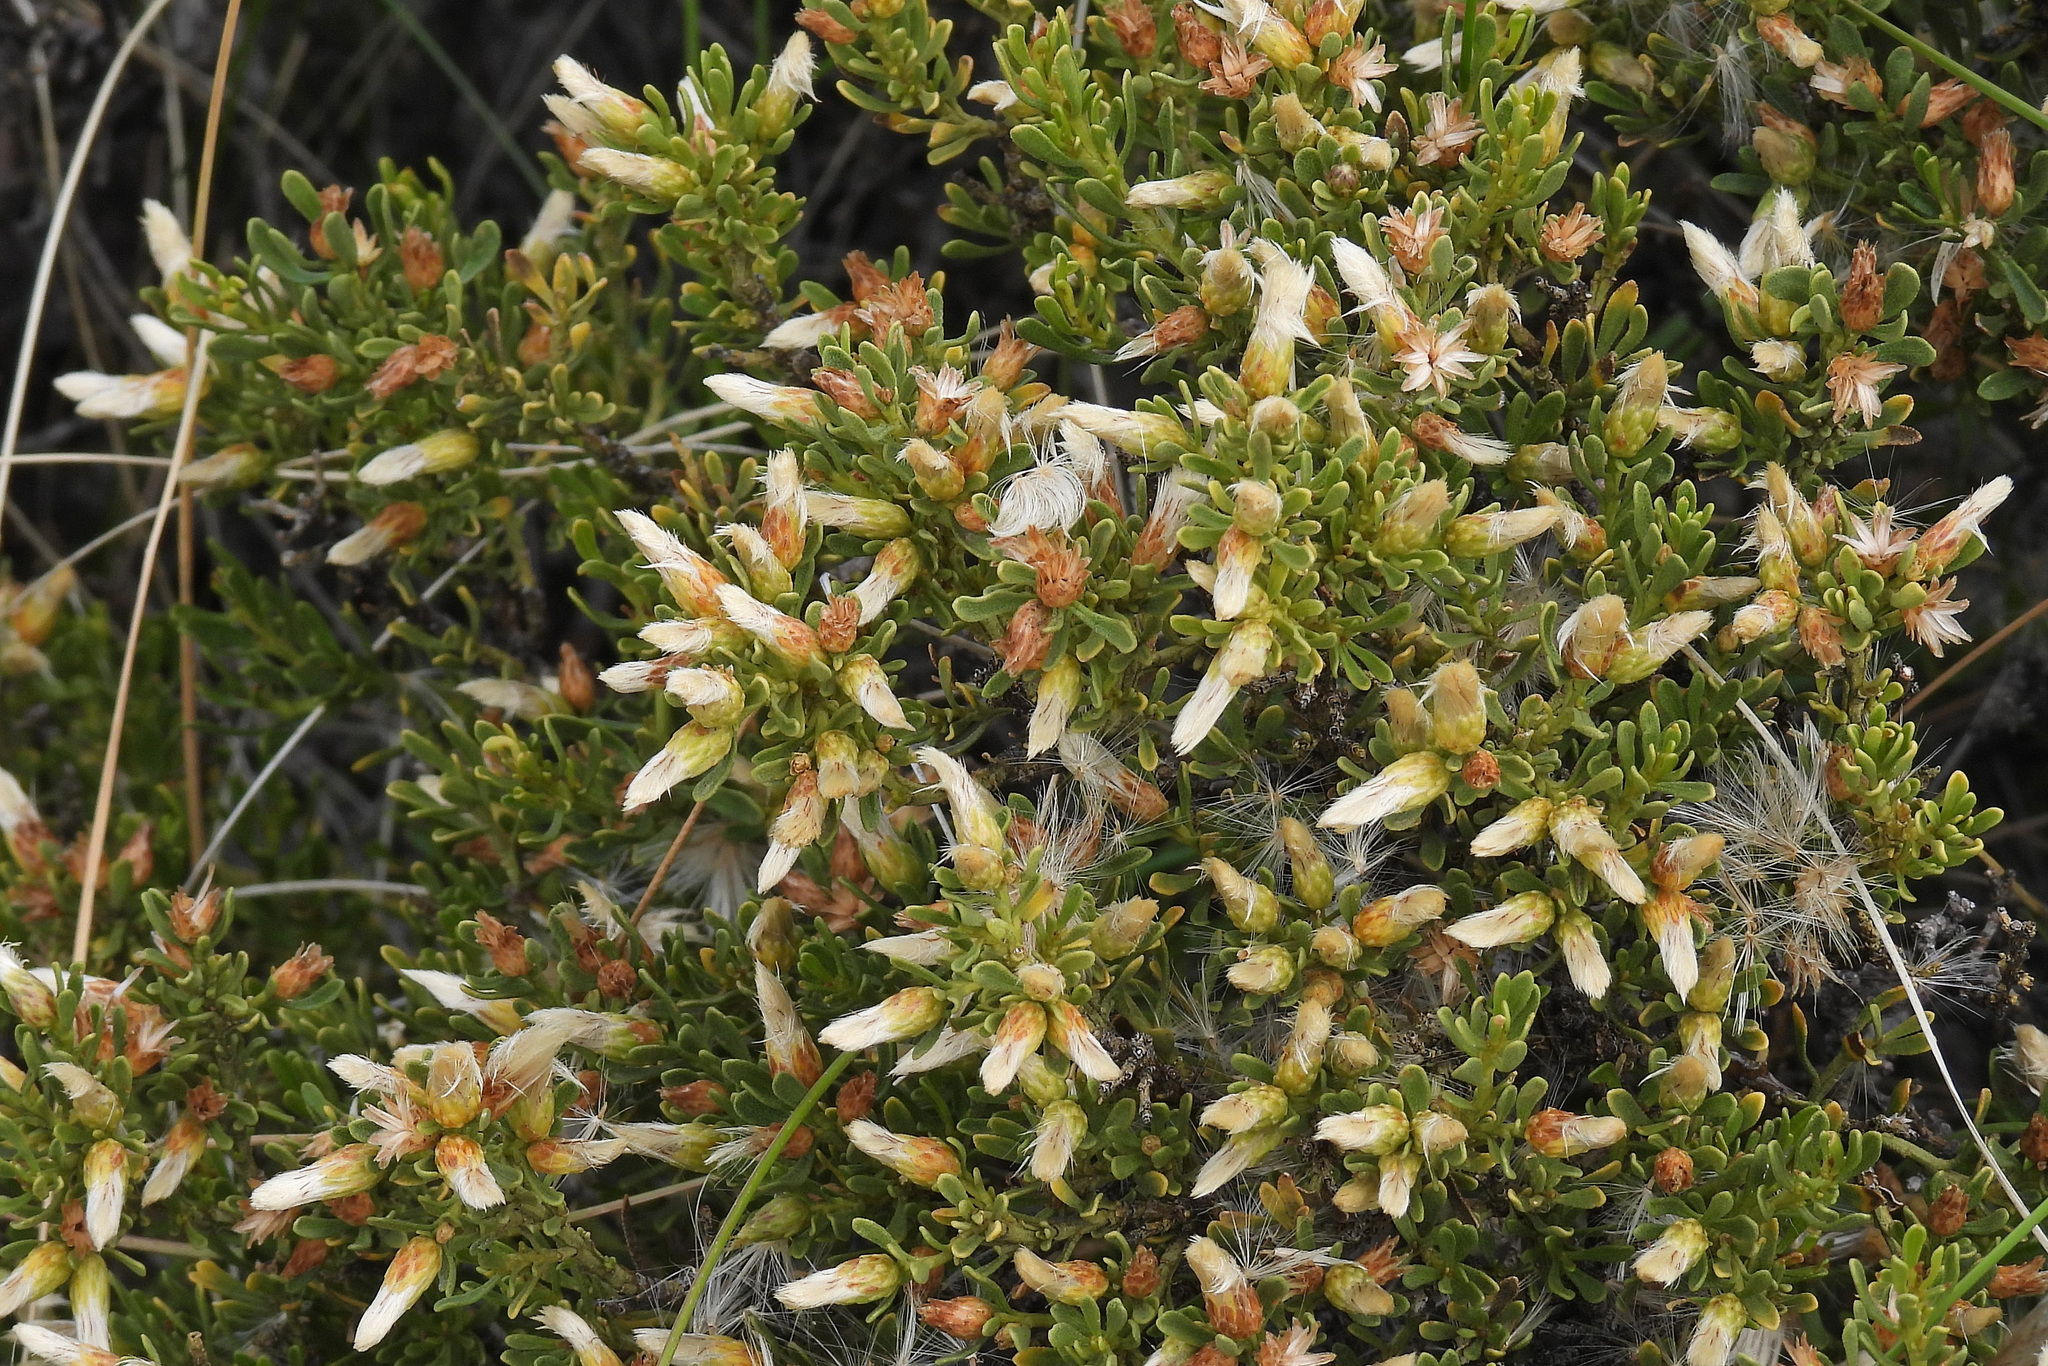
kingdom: Plantae
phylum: Tracheophyta
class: Magnoliopsida
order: Asterales
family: Asteraceae
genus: Baccharis
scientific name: Baccharis tola
